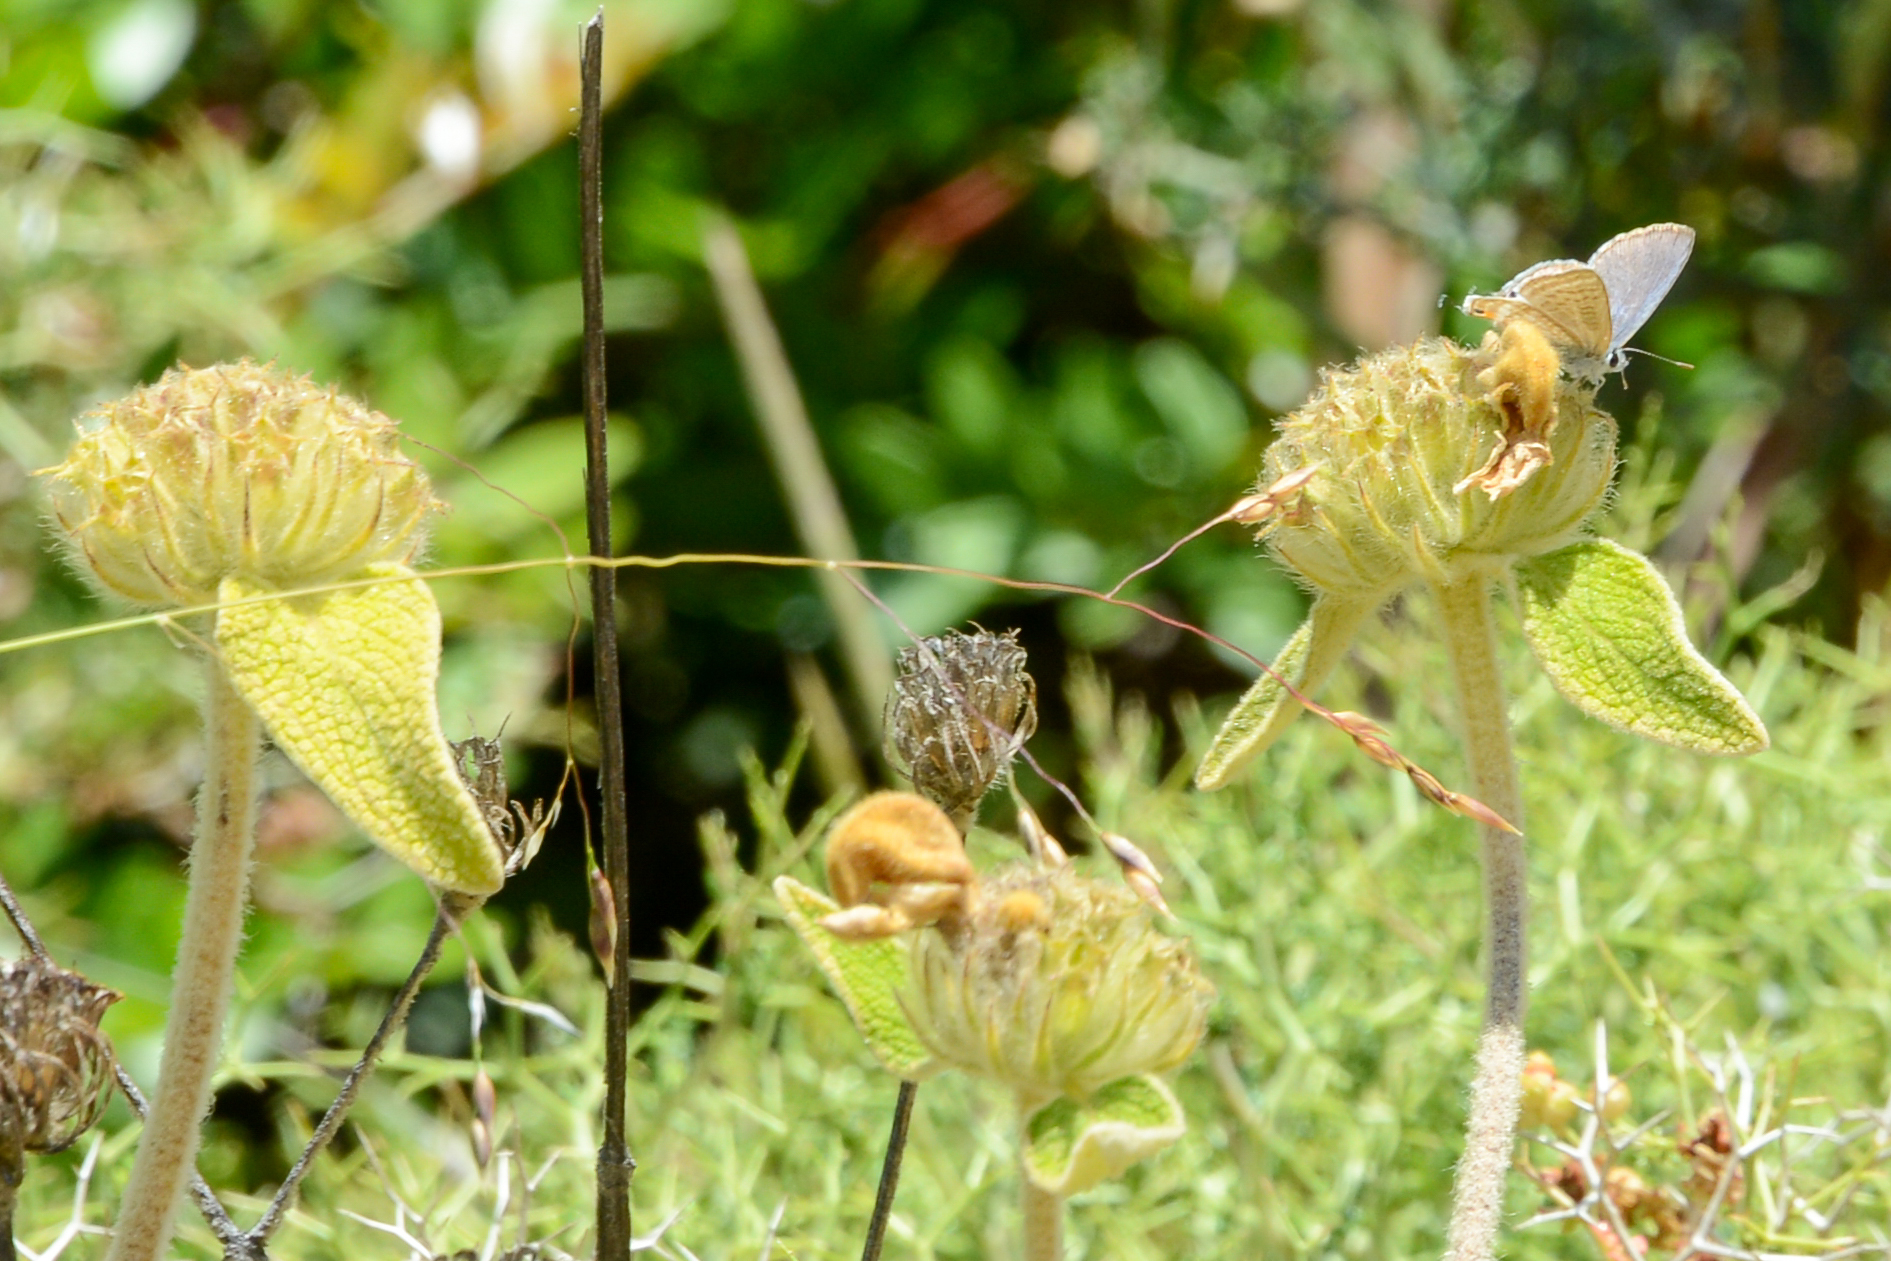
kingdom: Plantae
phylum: Tracheophyta
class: Magnoliopsida
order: Lamiales
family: Lamiaceae
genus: Phlomis
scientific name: Phlomis cretica
